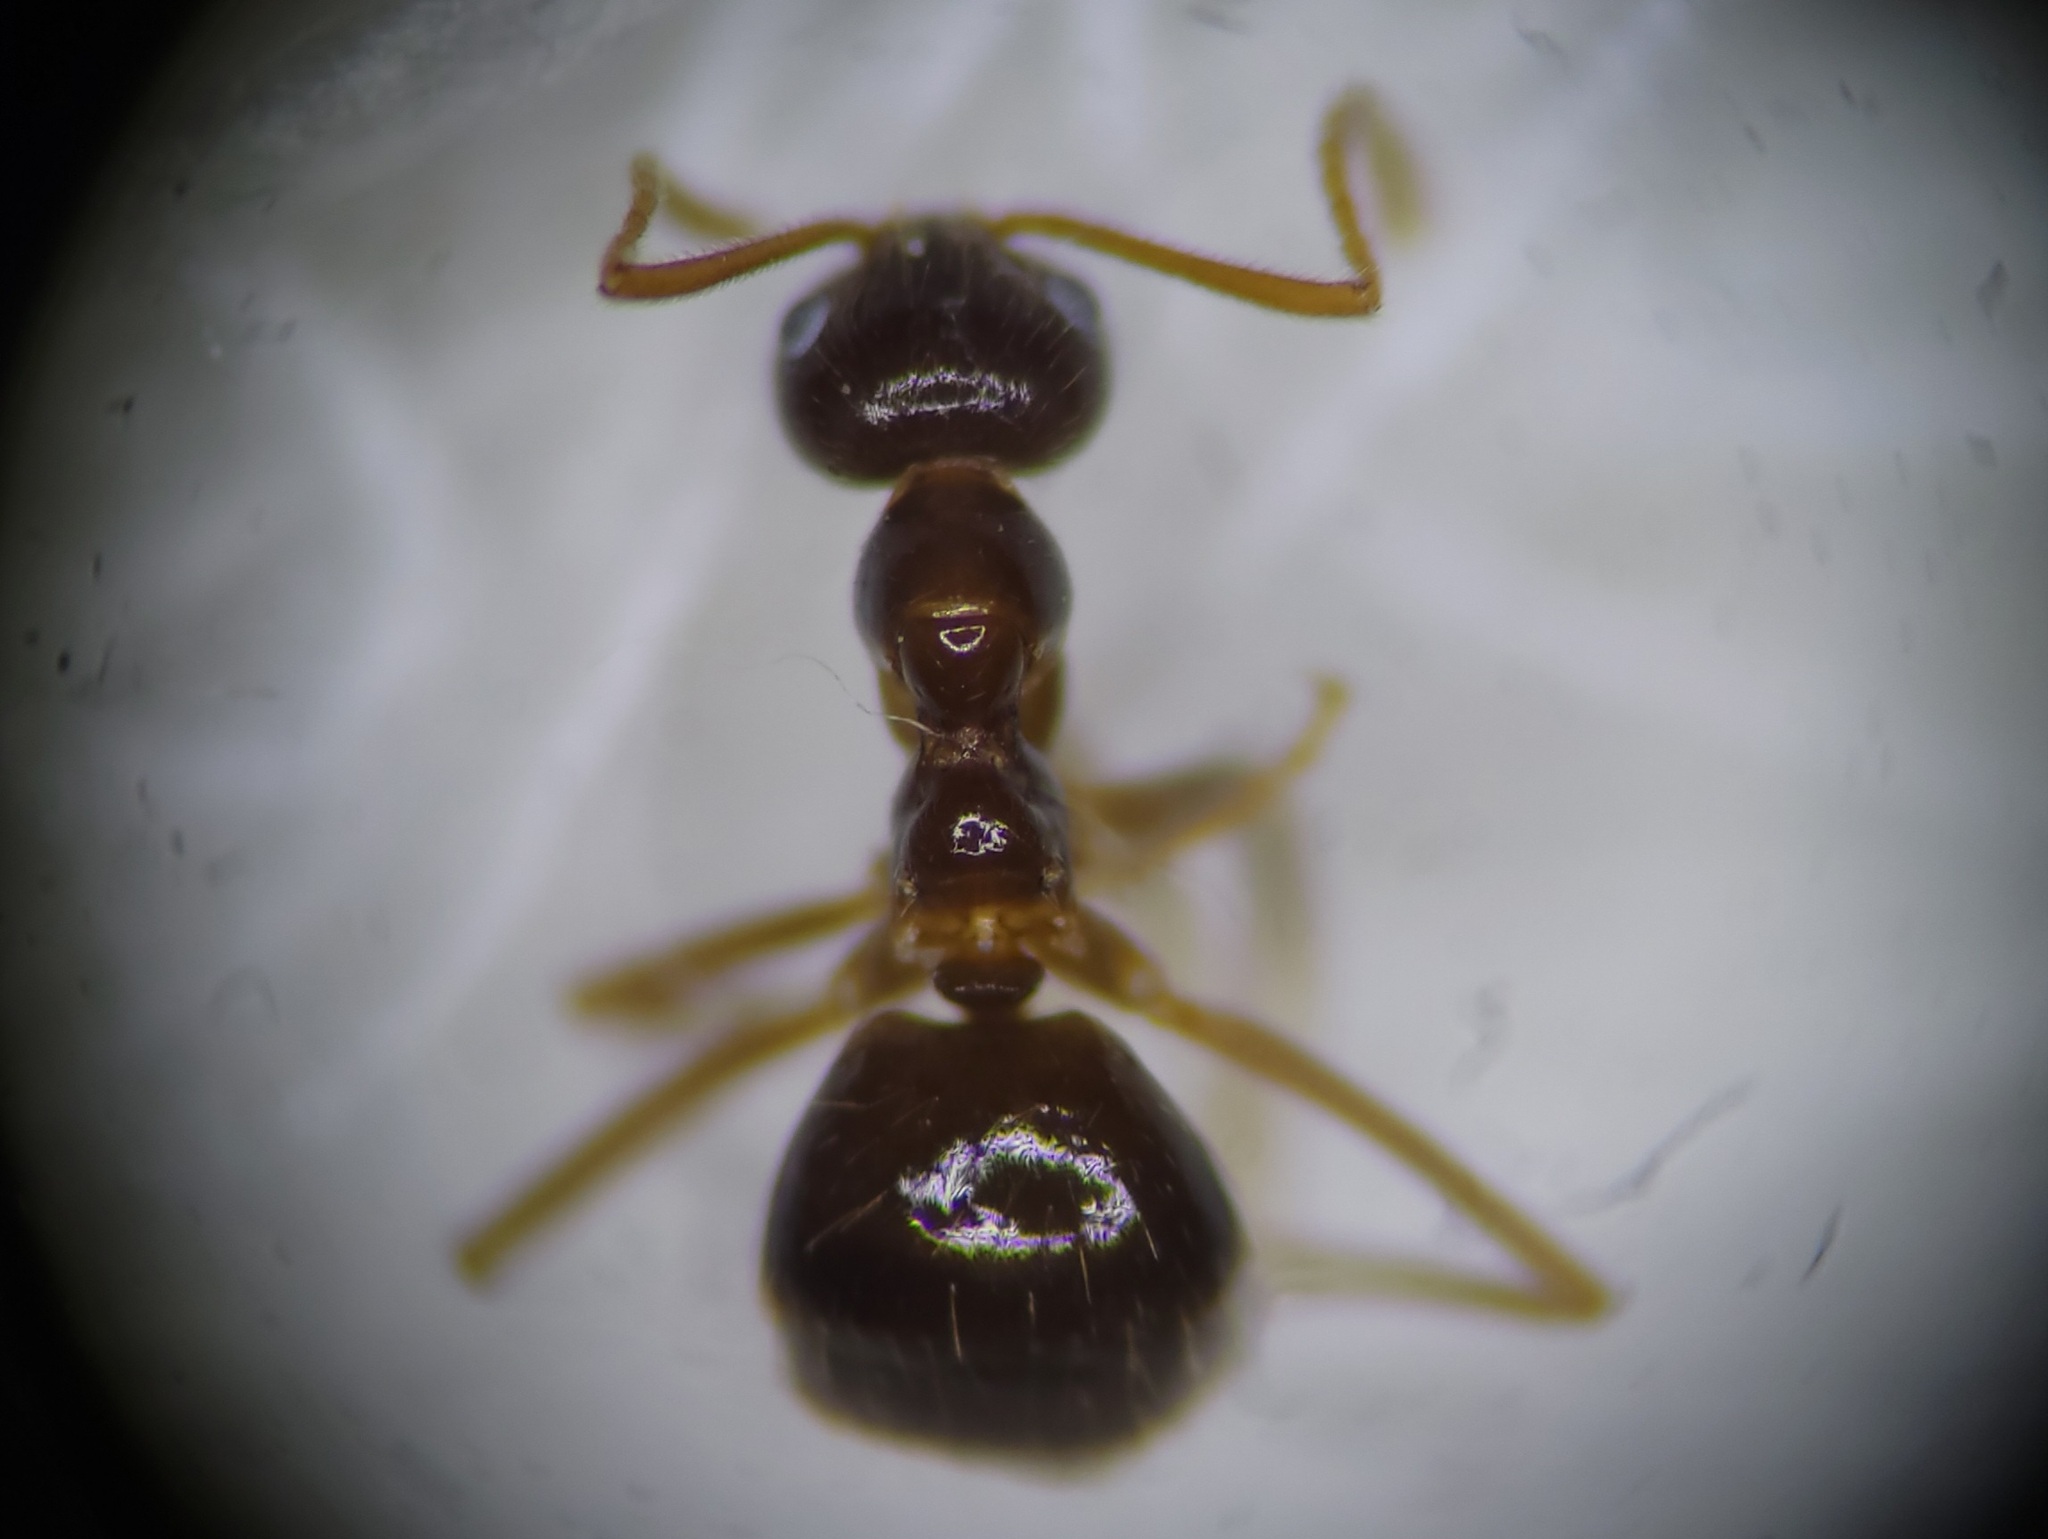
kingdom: Animalia
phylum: Arthropoda
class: Insecta
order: Hymenoptera
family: Formicidae
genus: Prenolepis
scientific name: Prenolepis imparis
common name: Small honey ant
